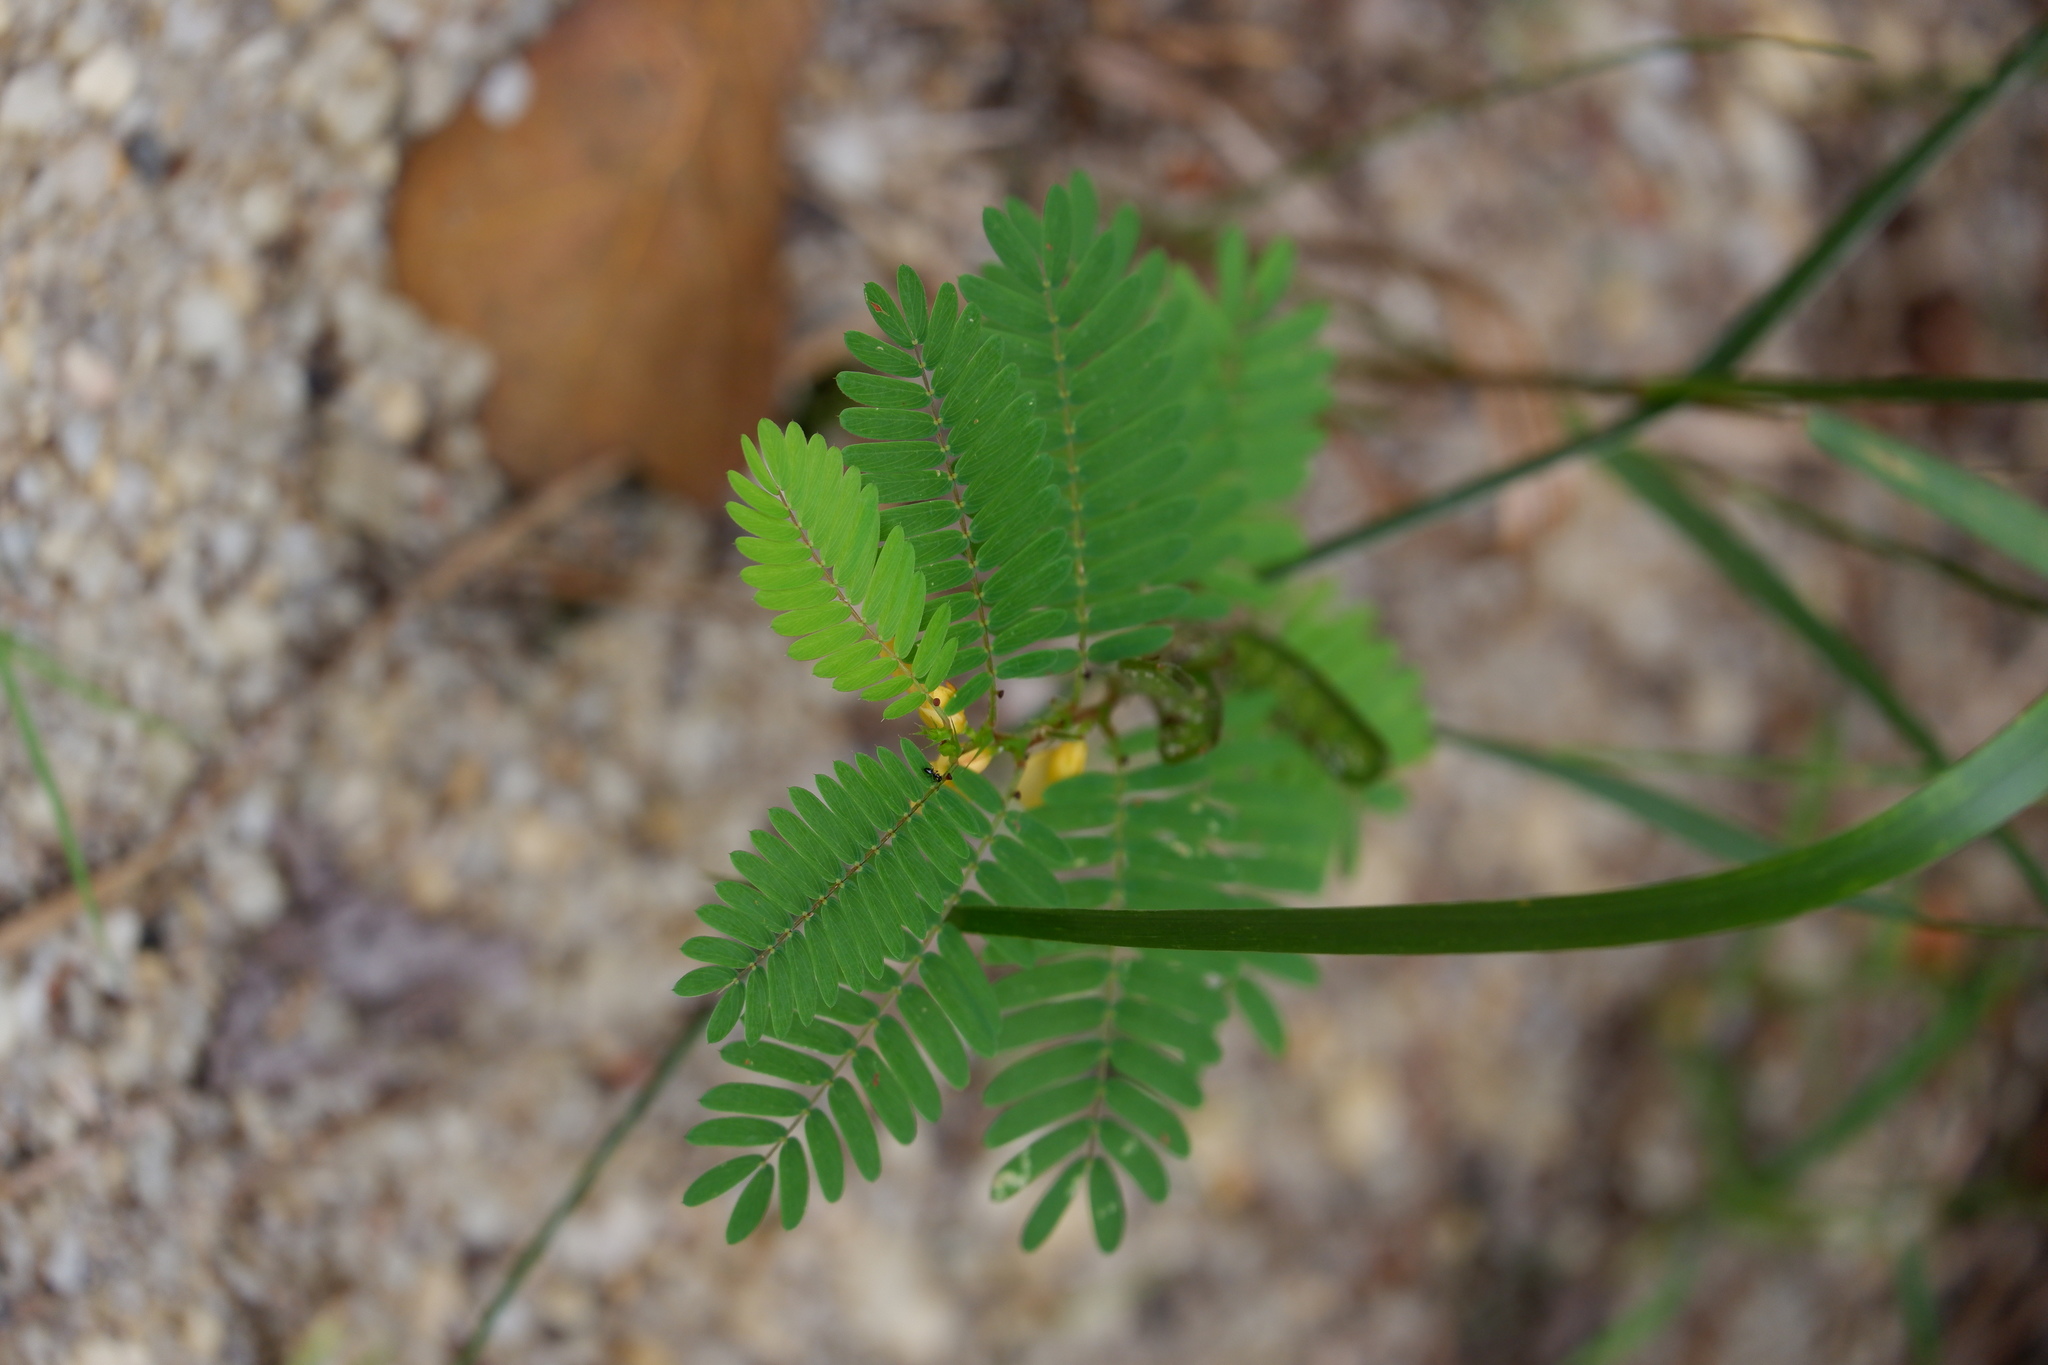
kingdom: Plantae
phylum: Tracheophyta
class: Magnoliopsida
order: Fabales
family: Fabaceae
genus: Chamaecrista
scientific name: Chamaecrista nictitans
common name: Sensitive cassia
